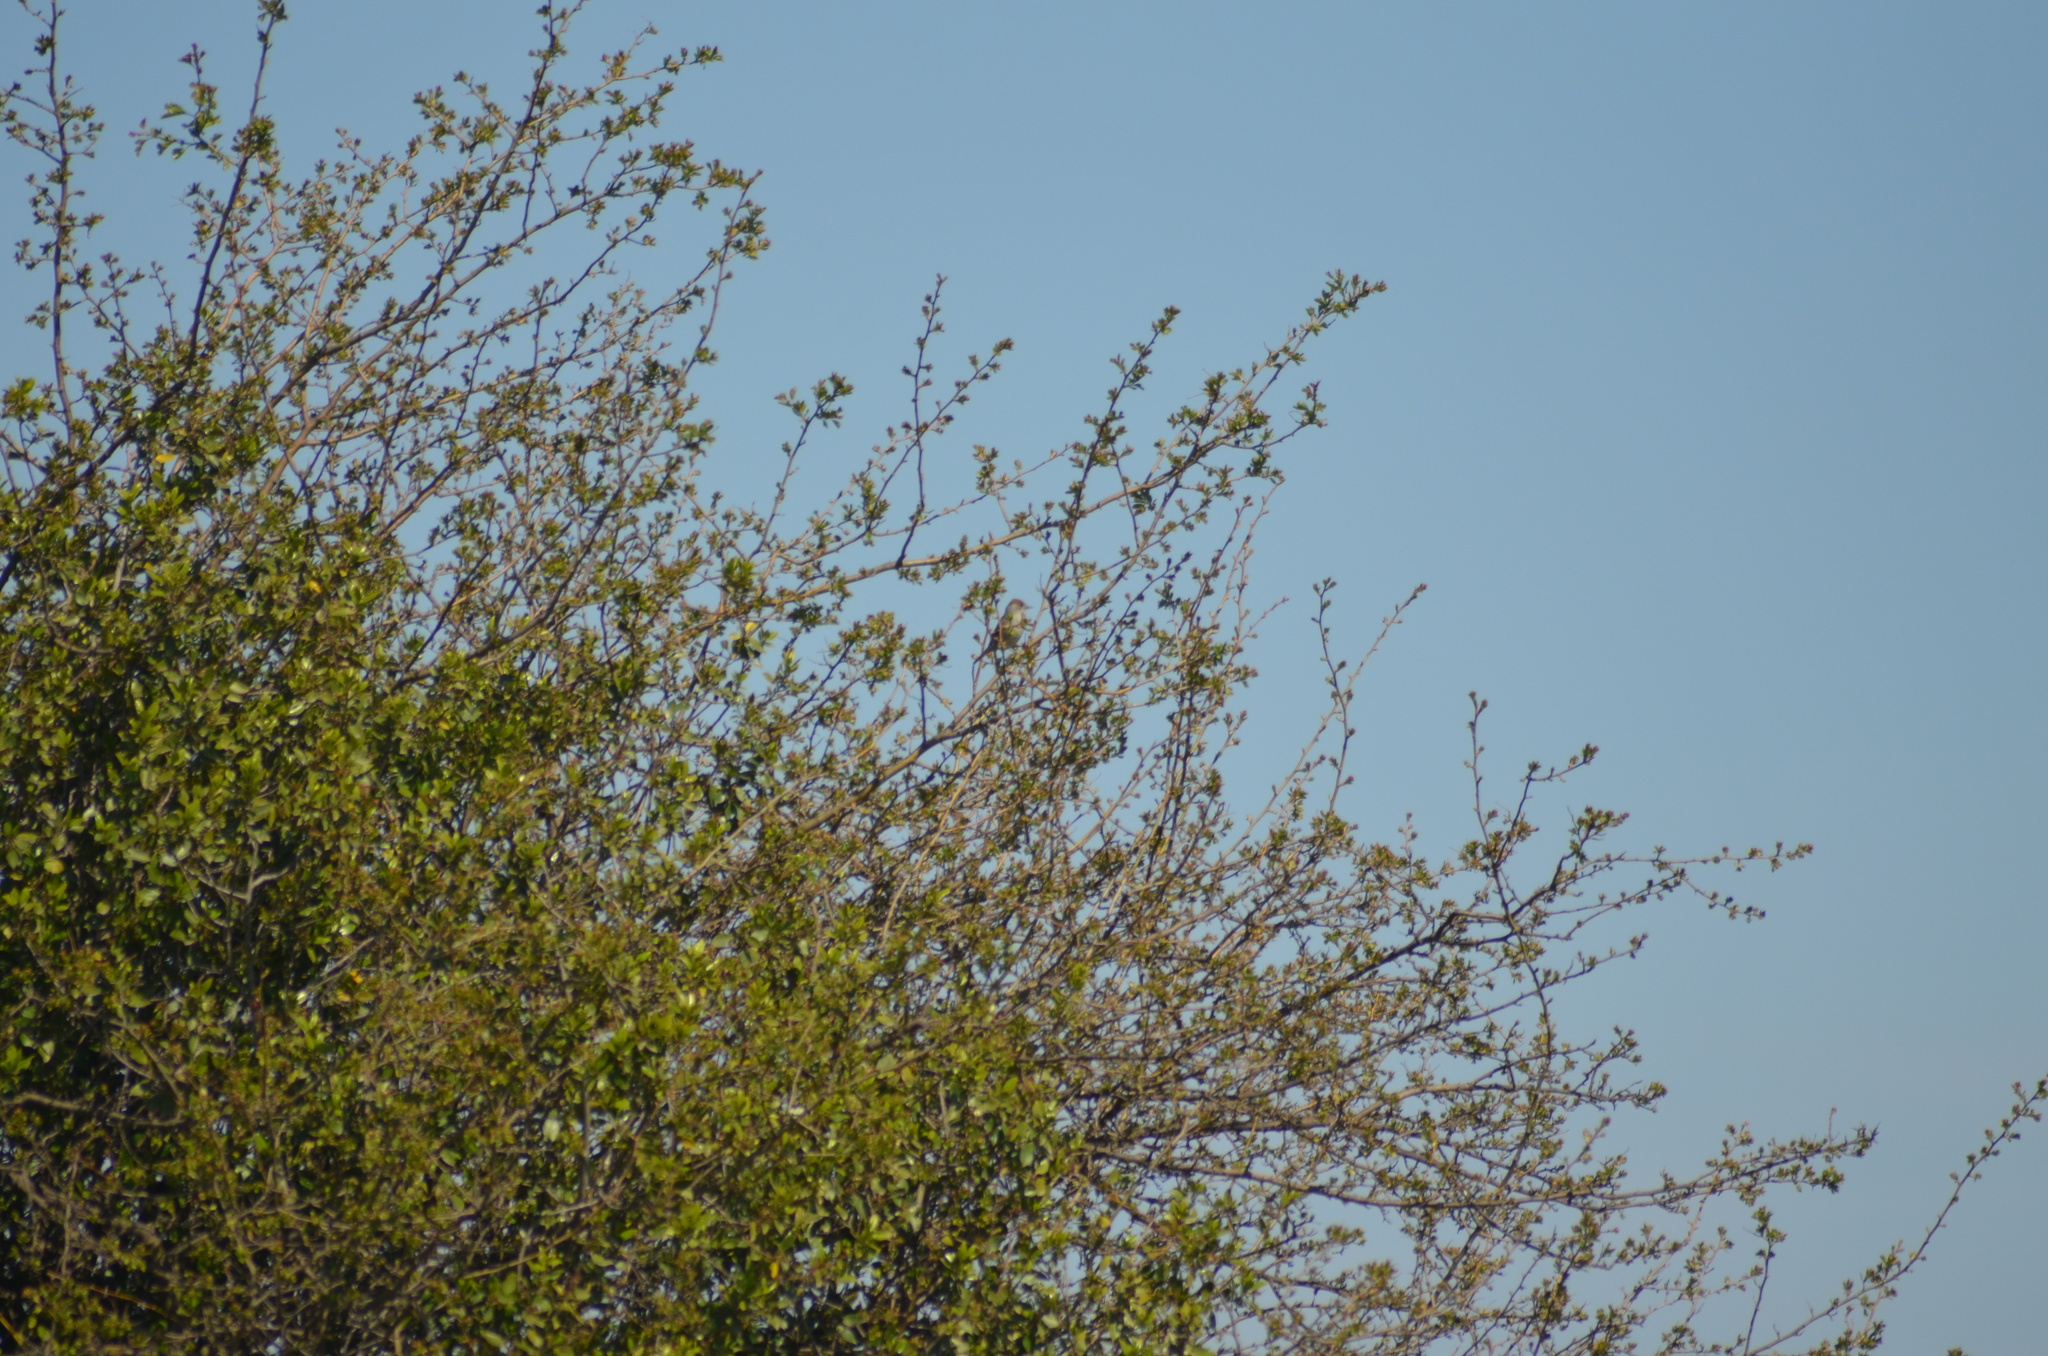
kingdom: Animalia
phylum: Chordata
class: Aves
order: Passeriformes
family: Sylviidae
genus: Sylvia
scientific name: Sylvia atricapilla
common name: Eurasian blackcap
